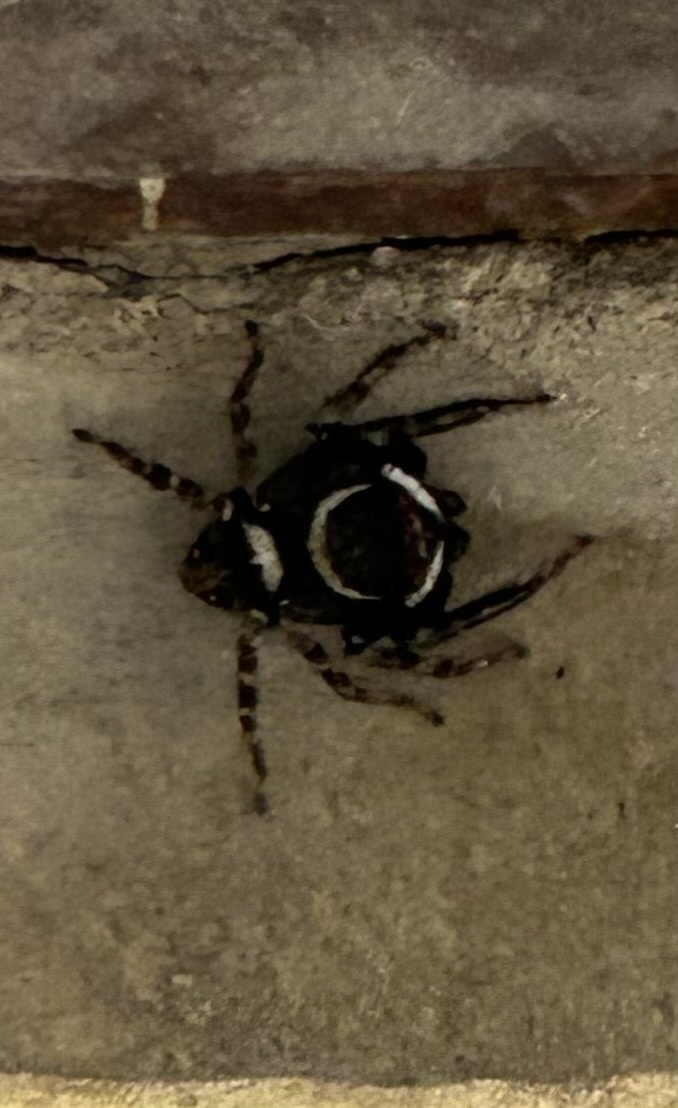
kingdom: Animalia
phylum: Arthropoda
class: Arachnida
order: Araneae
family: Salticidae
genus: Hasarius
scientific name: Hasarius adansoni
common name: Jumping spider
